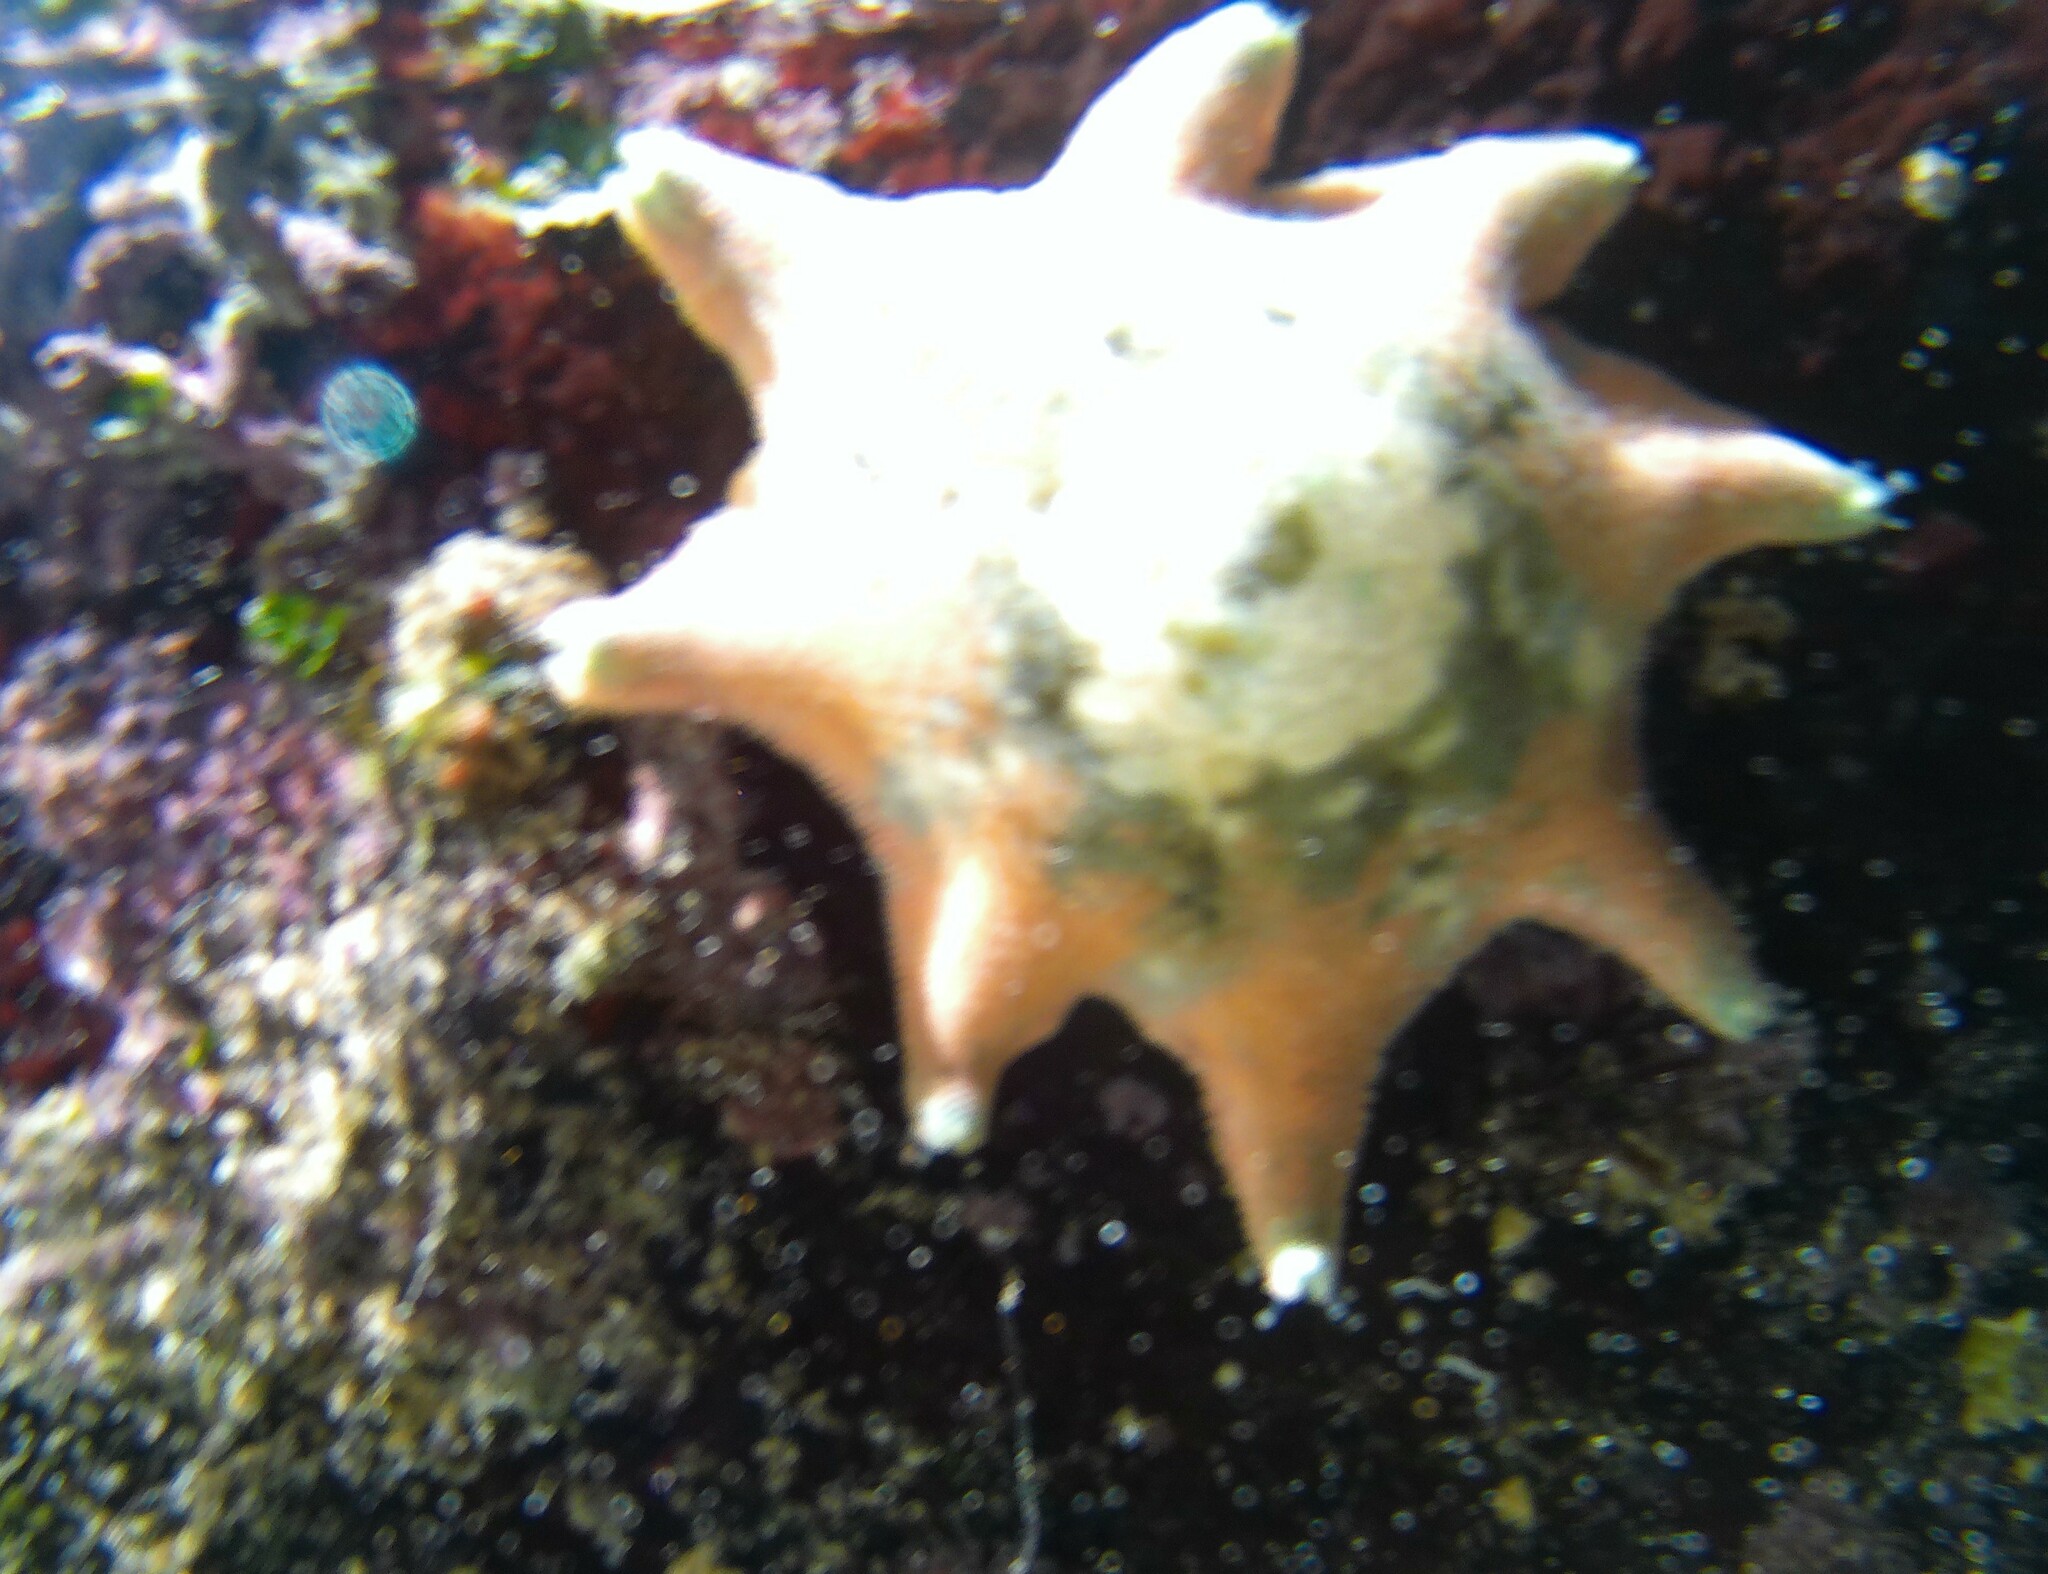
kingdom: Animalia
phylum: Echinodermata
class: Asteroidea
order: Valvatida
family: Asterinidae
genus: Meridiastra
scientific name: Meridiastra calcar
